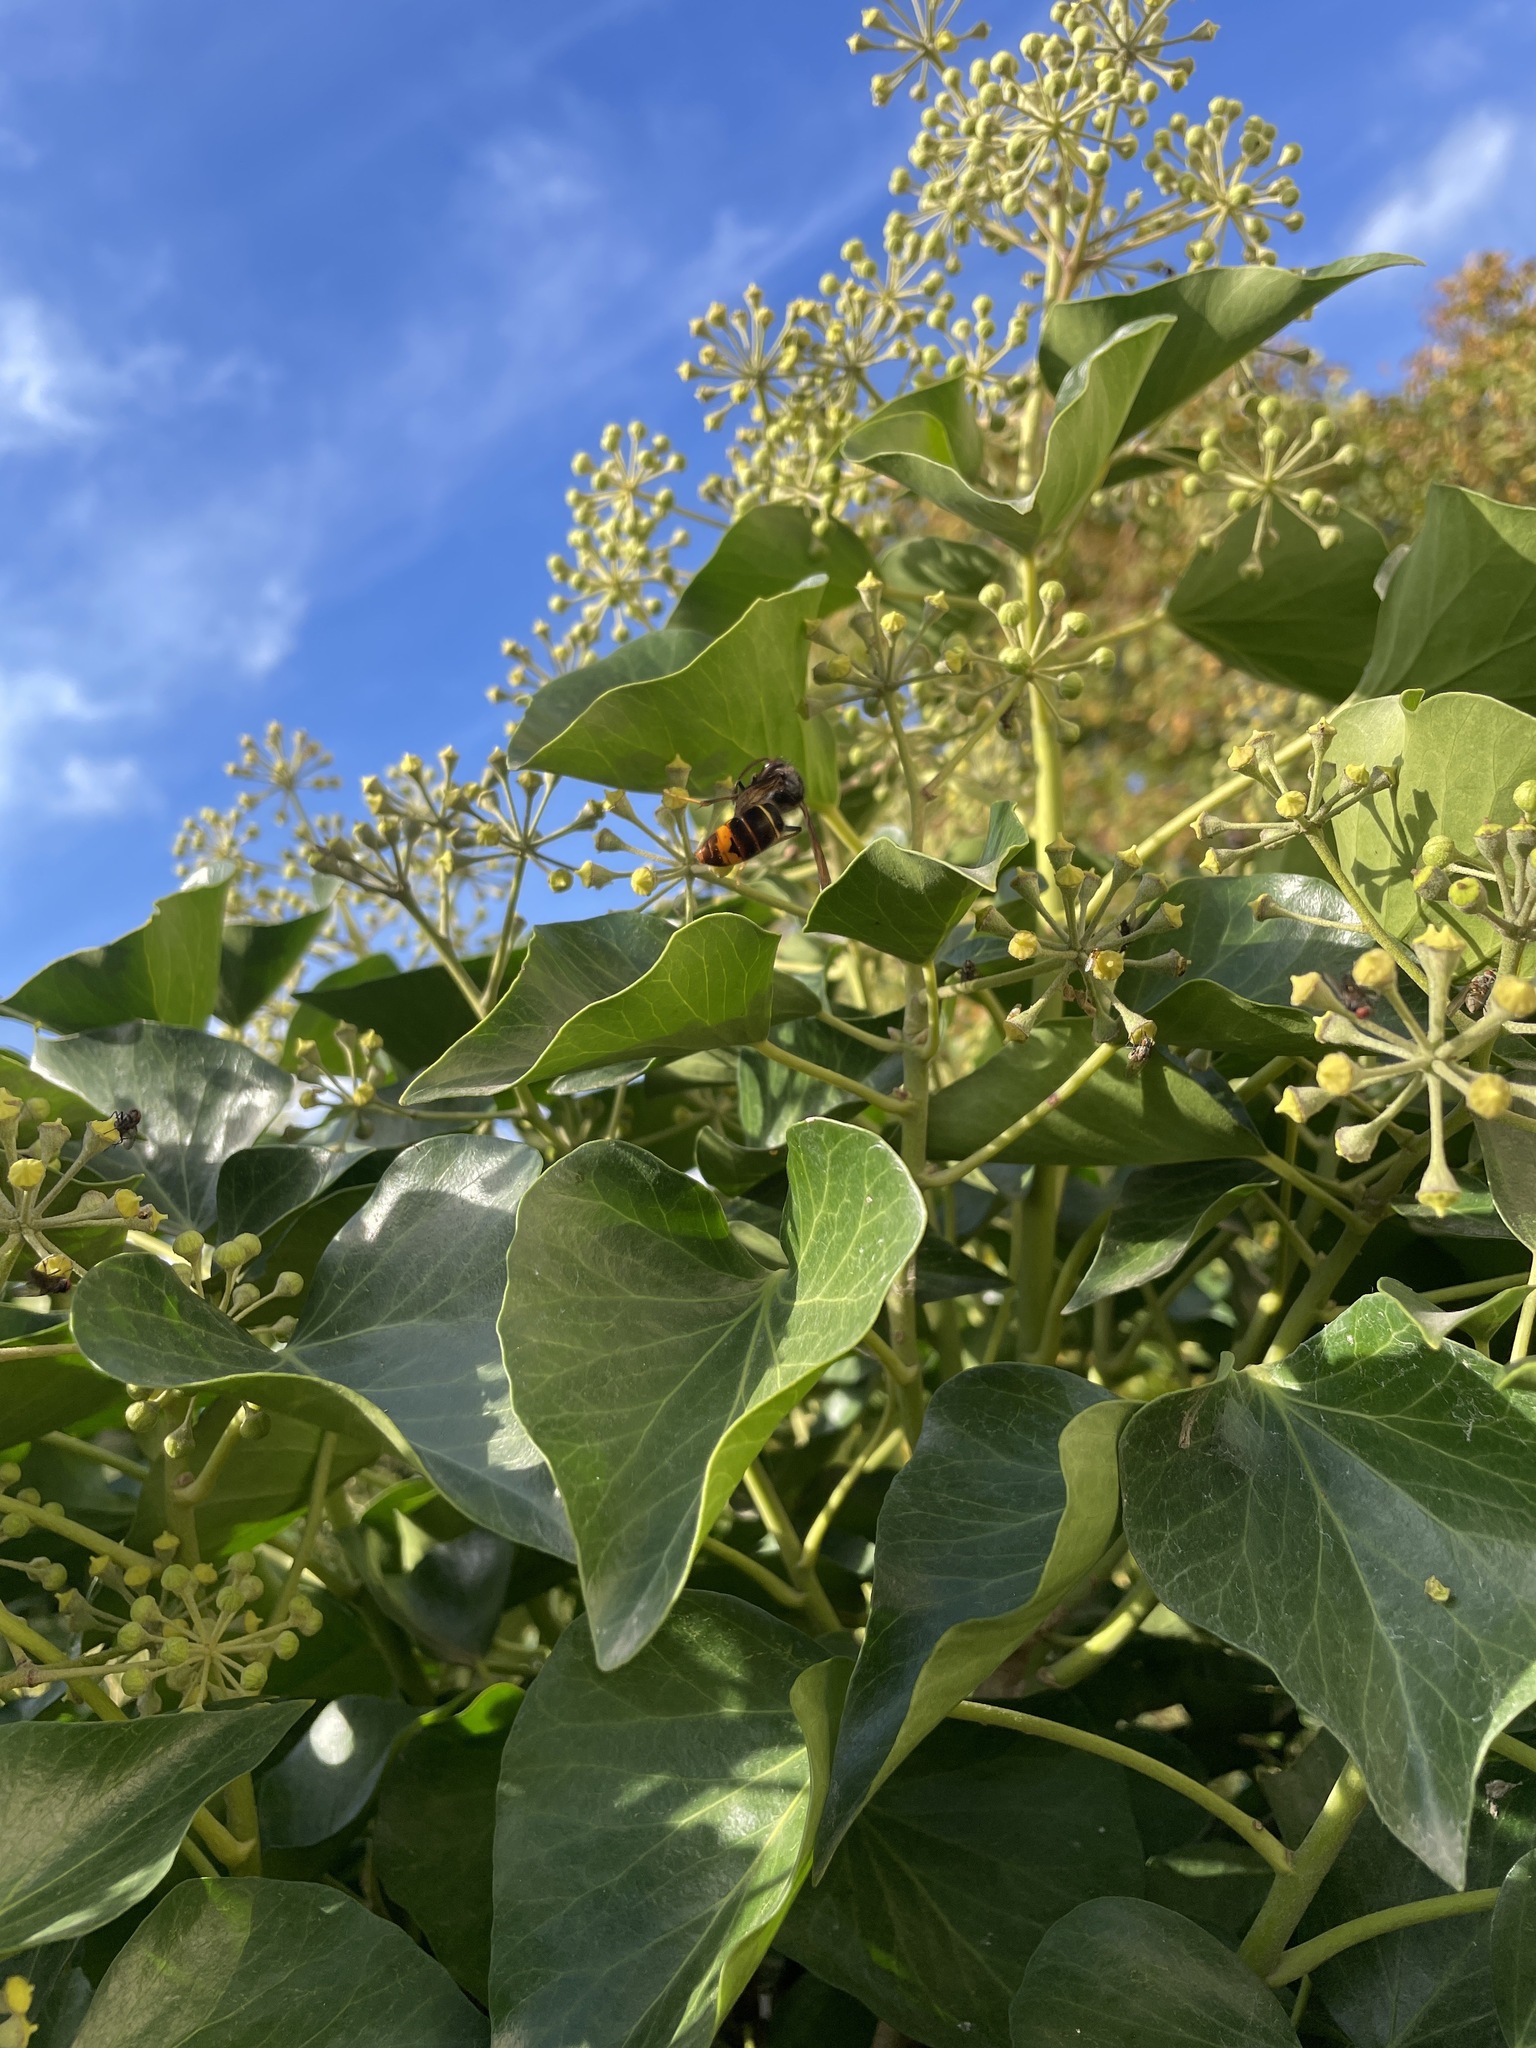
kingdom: Animalia
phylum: Arthropoda
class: Insecta
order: Hymenoptera
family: Vespidae
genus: Vespa
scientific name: Vespa velutina
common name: Asian hornet
